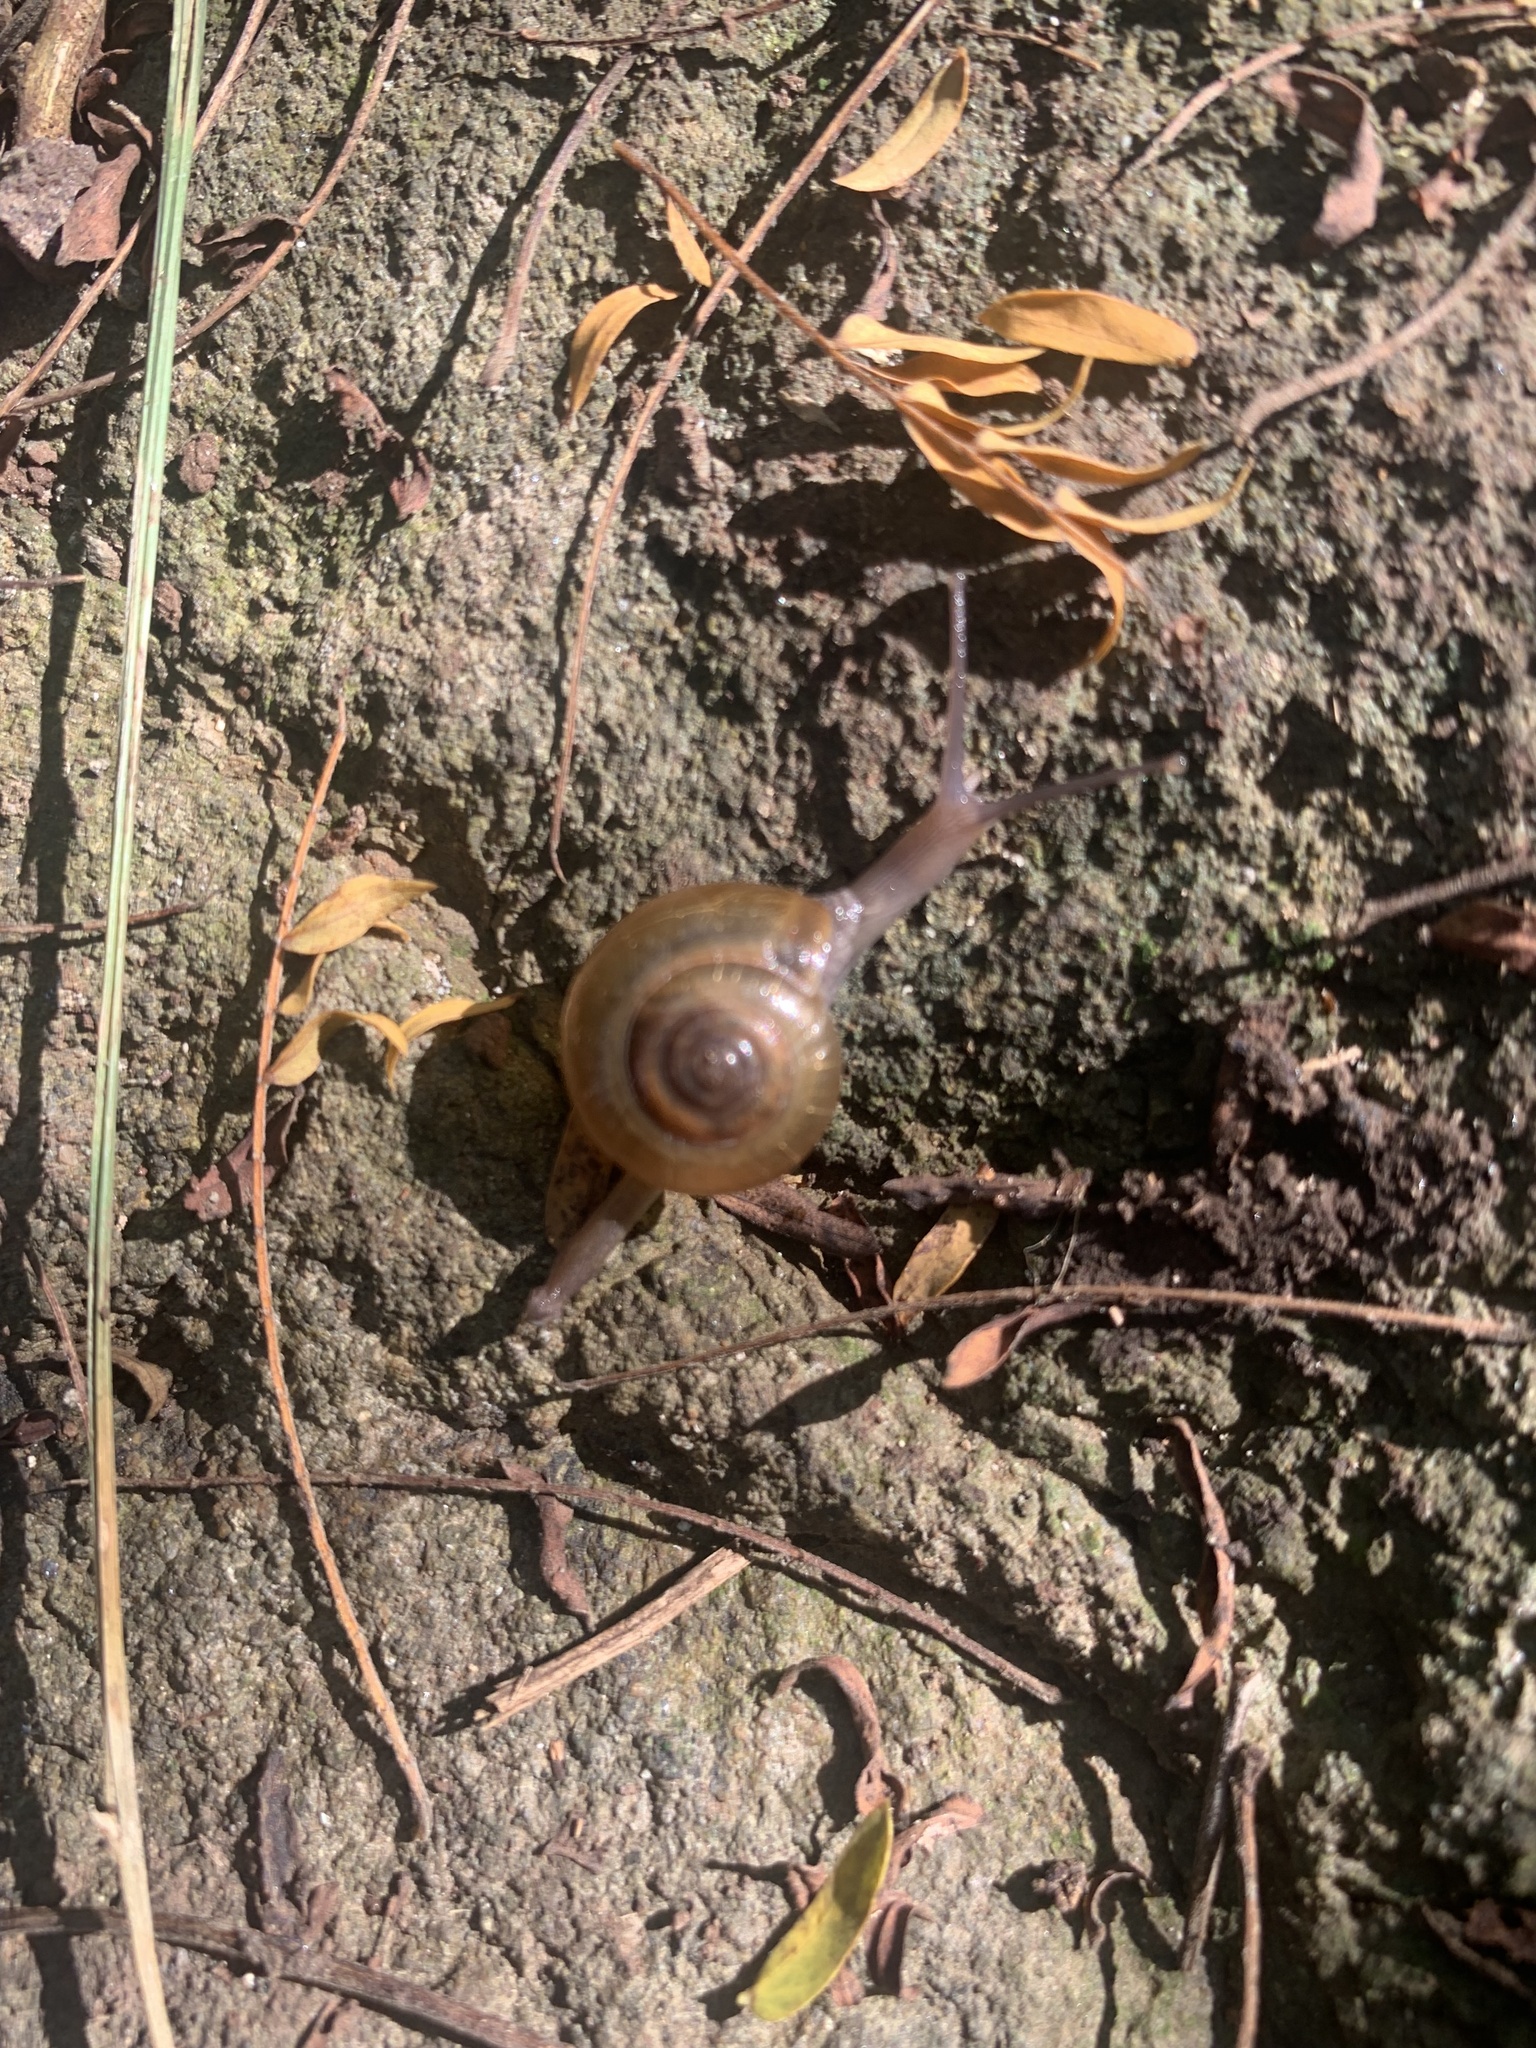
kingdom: Animalia
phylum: Mollusca
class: Gastropoda
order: Stylommatophora
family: Ariophantidae
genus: Macrochlamys
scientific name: Macrochlamys indica
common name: Horntail snail
